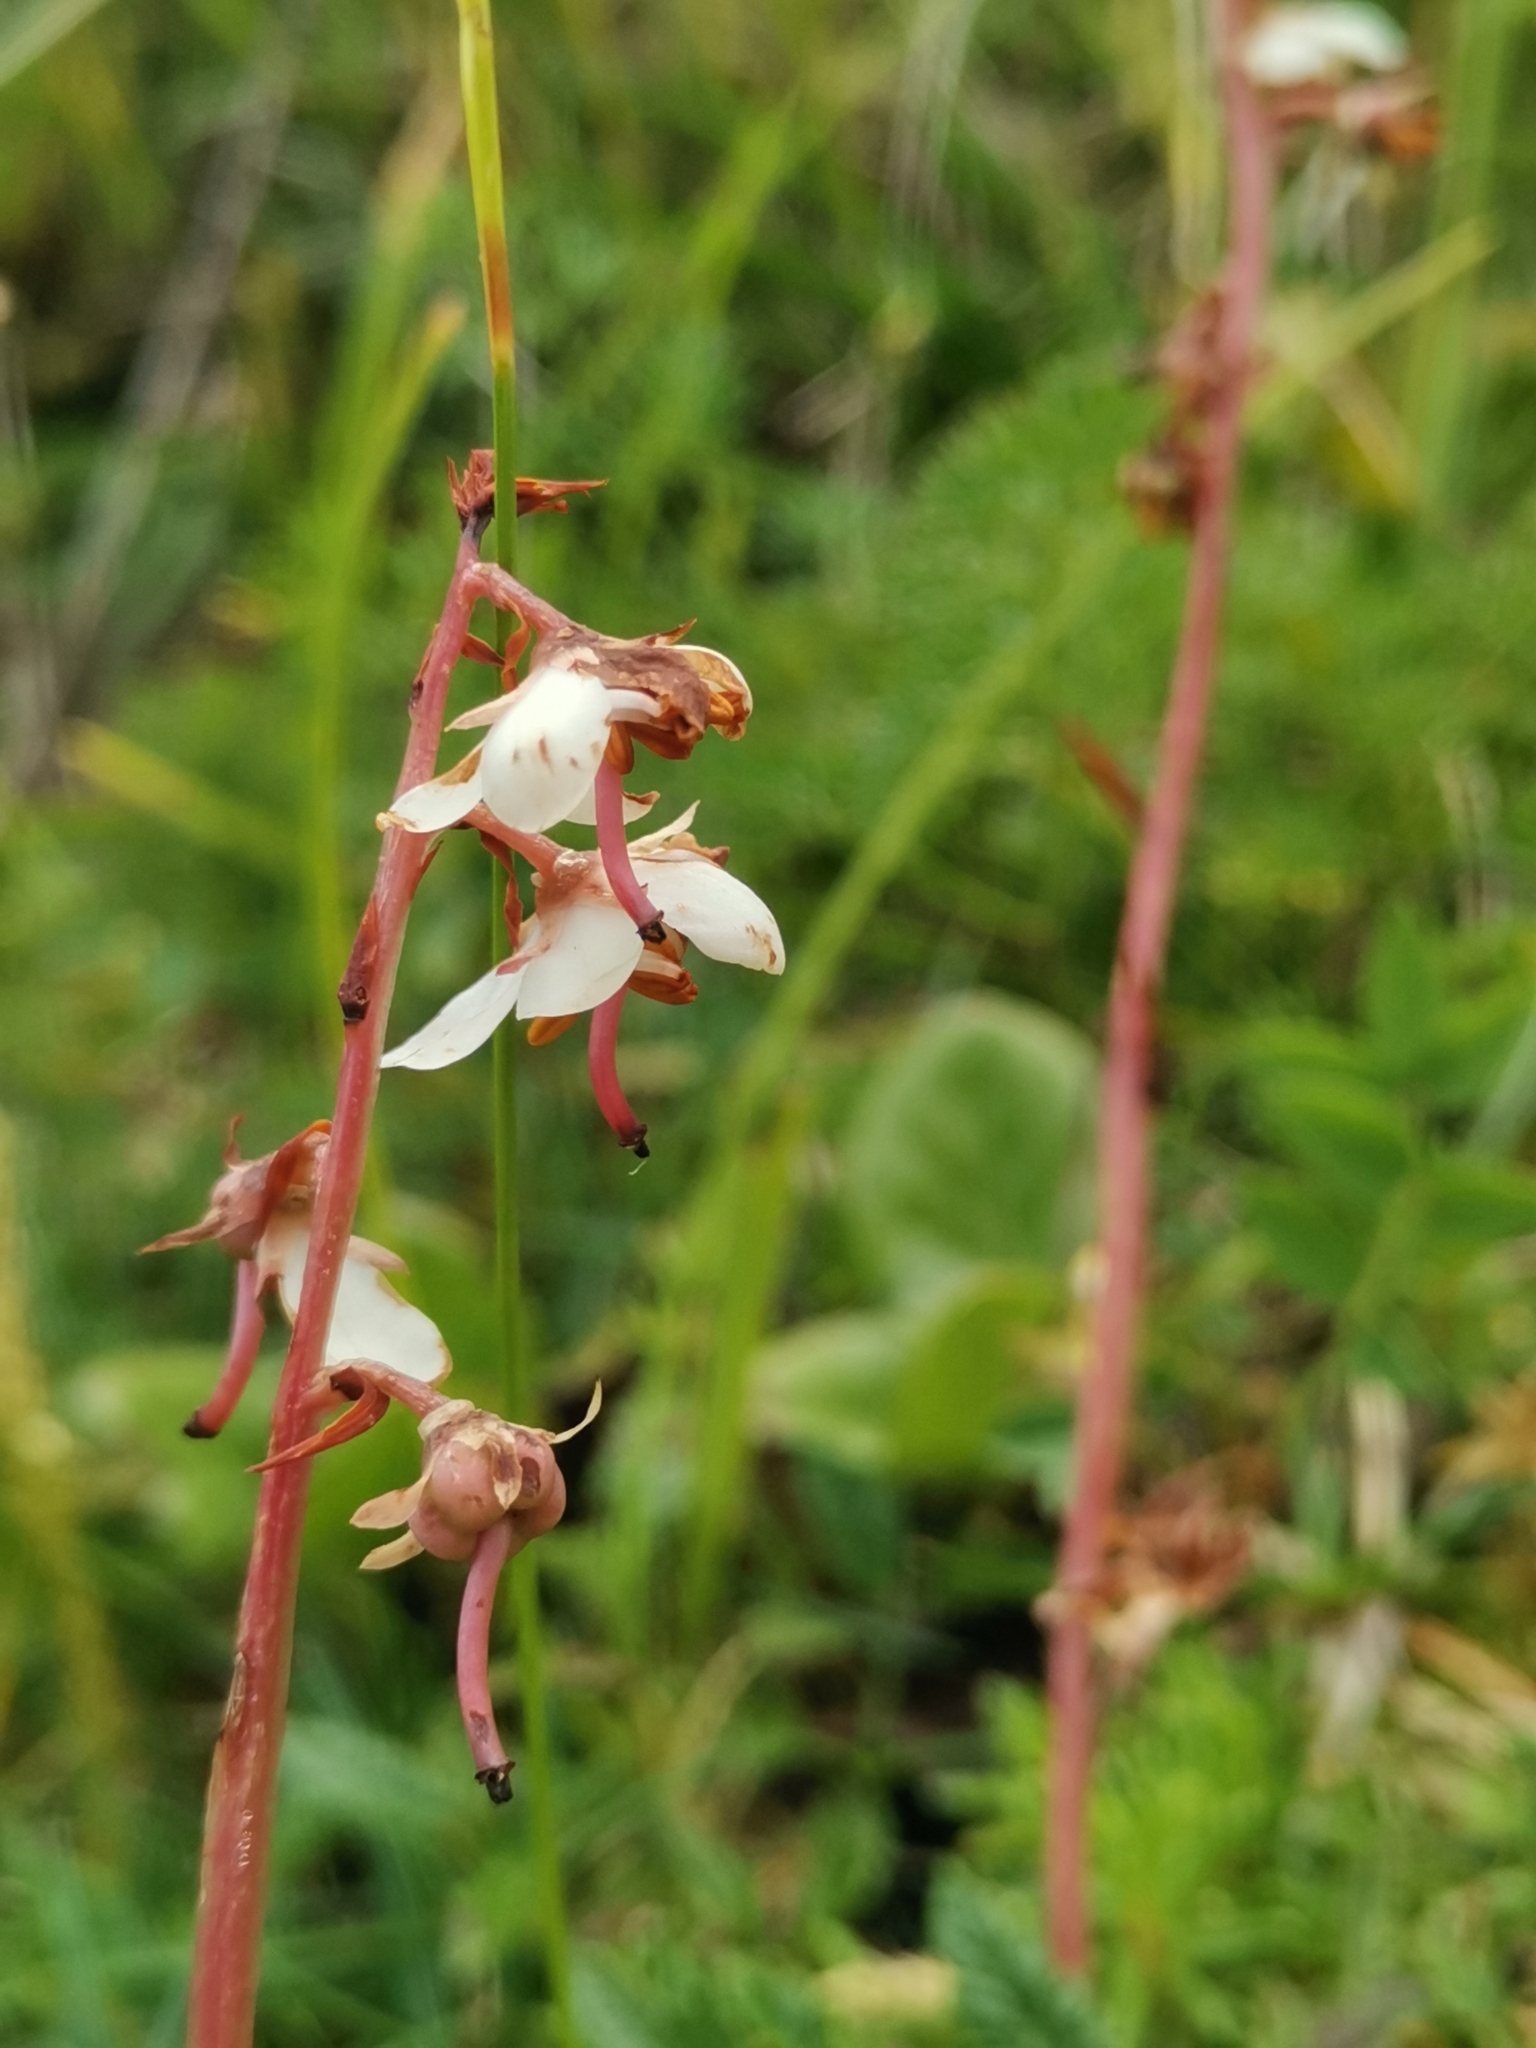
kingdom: Plantae
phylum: Tracheophyta
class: Magnoliopsida
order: Ericales
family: Ericaceae
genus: Pyrola
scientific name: Pyrola rotundifolia
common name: Round-leaved wintergreen
